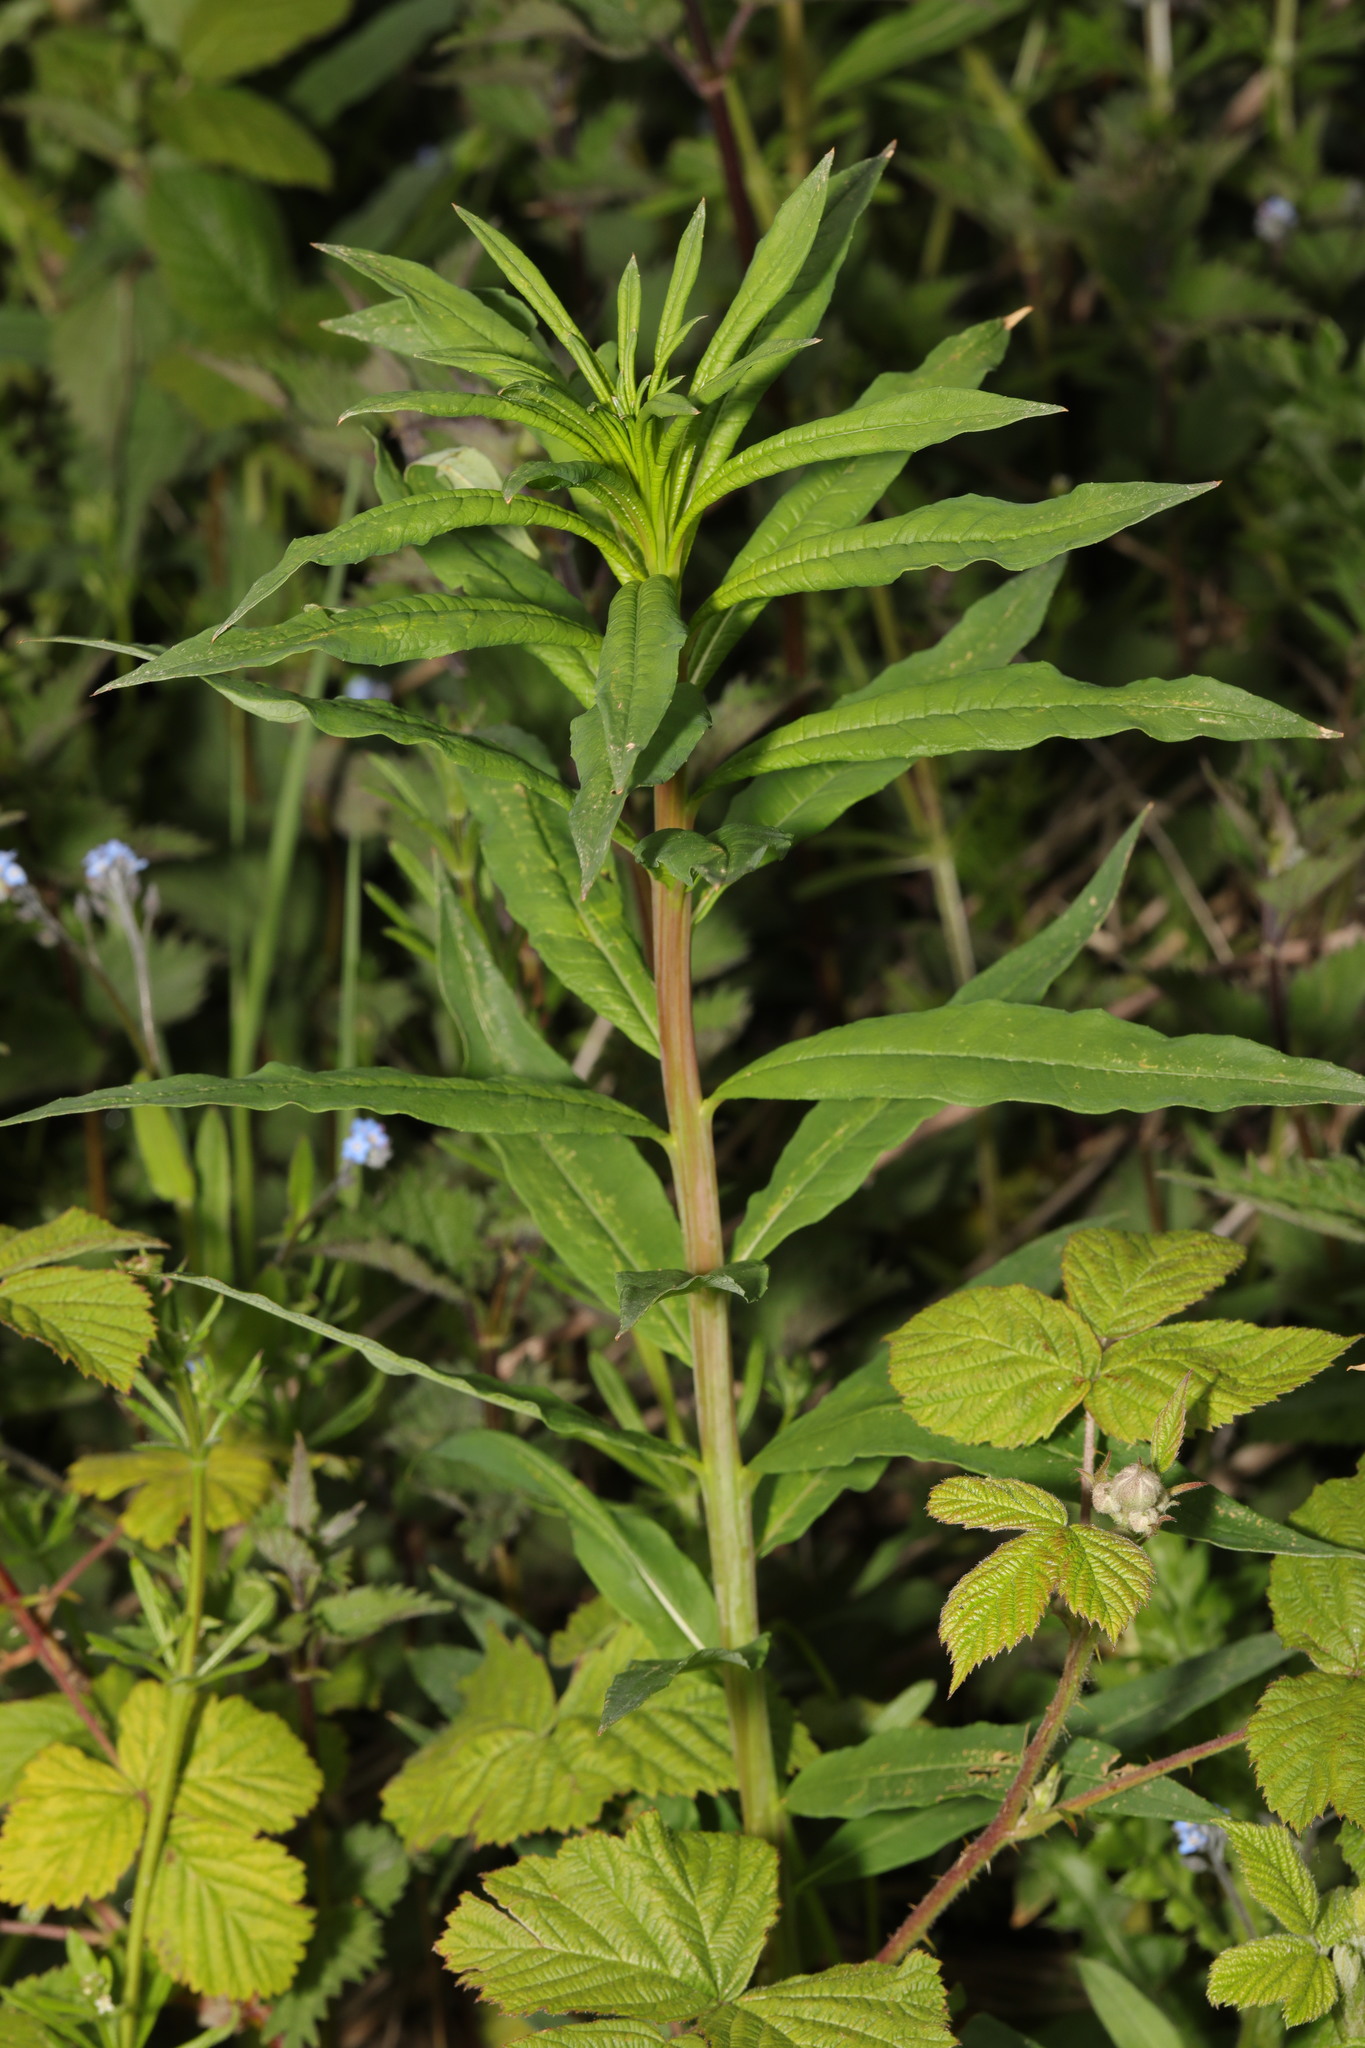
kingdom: Plantae
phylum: Tracheophyta
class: Magnoliopsida
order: Myrtales
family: Onagraceae
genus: Chamaenerion
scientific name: Chamaenerion angustifolium
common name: Fireweed
